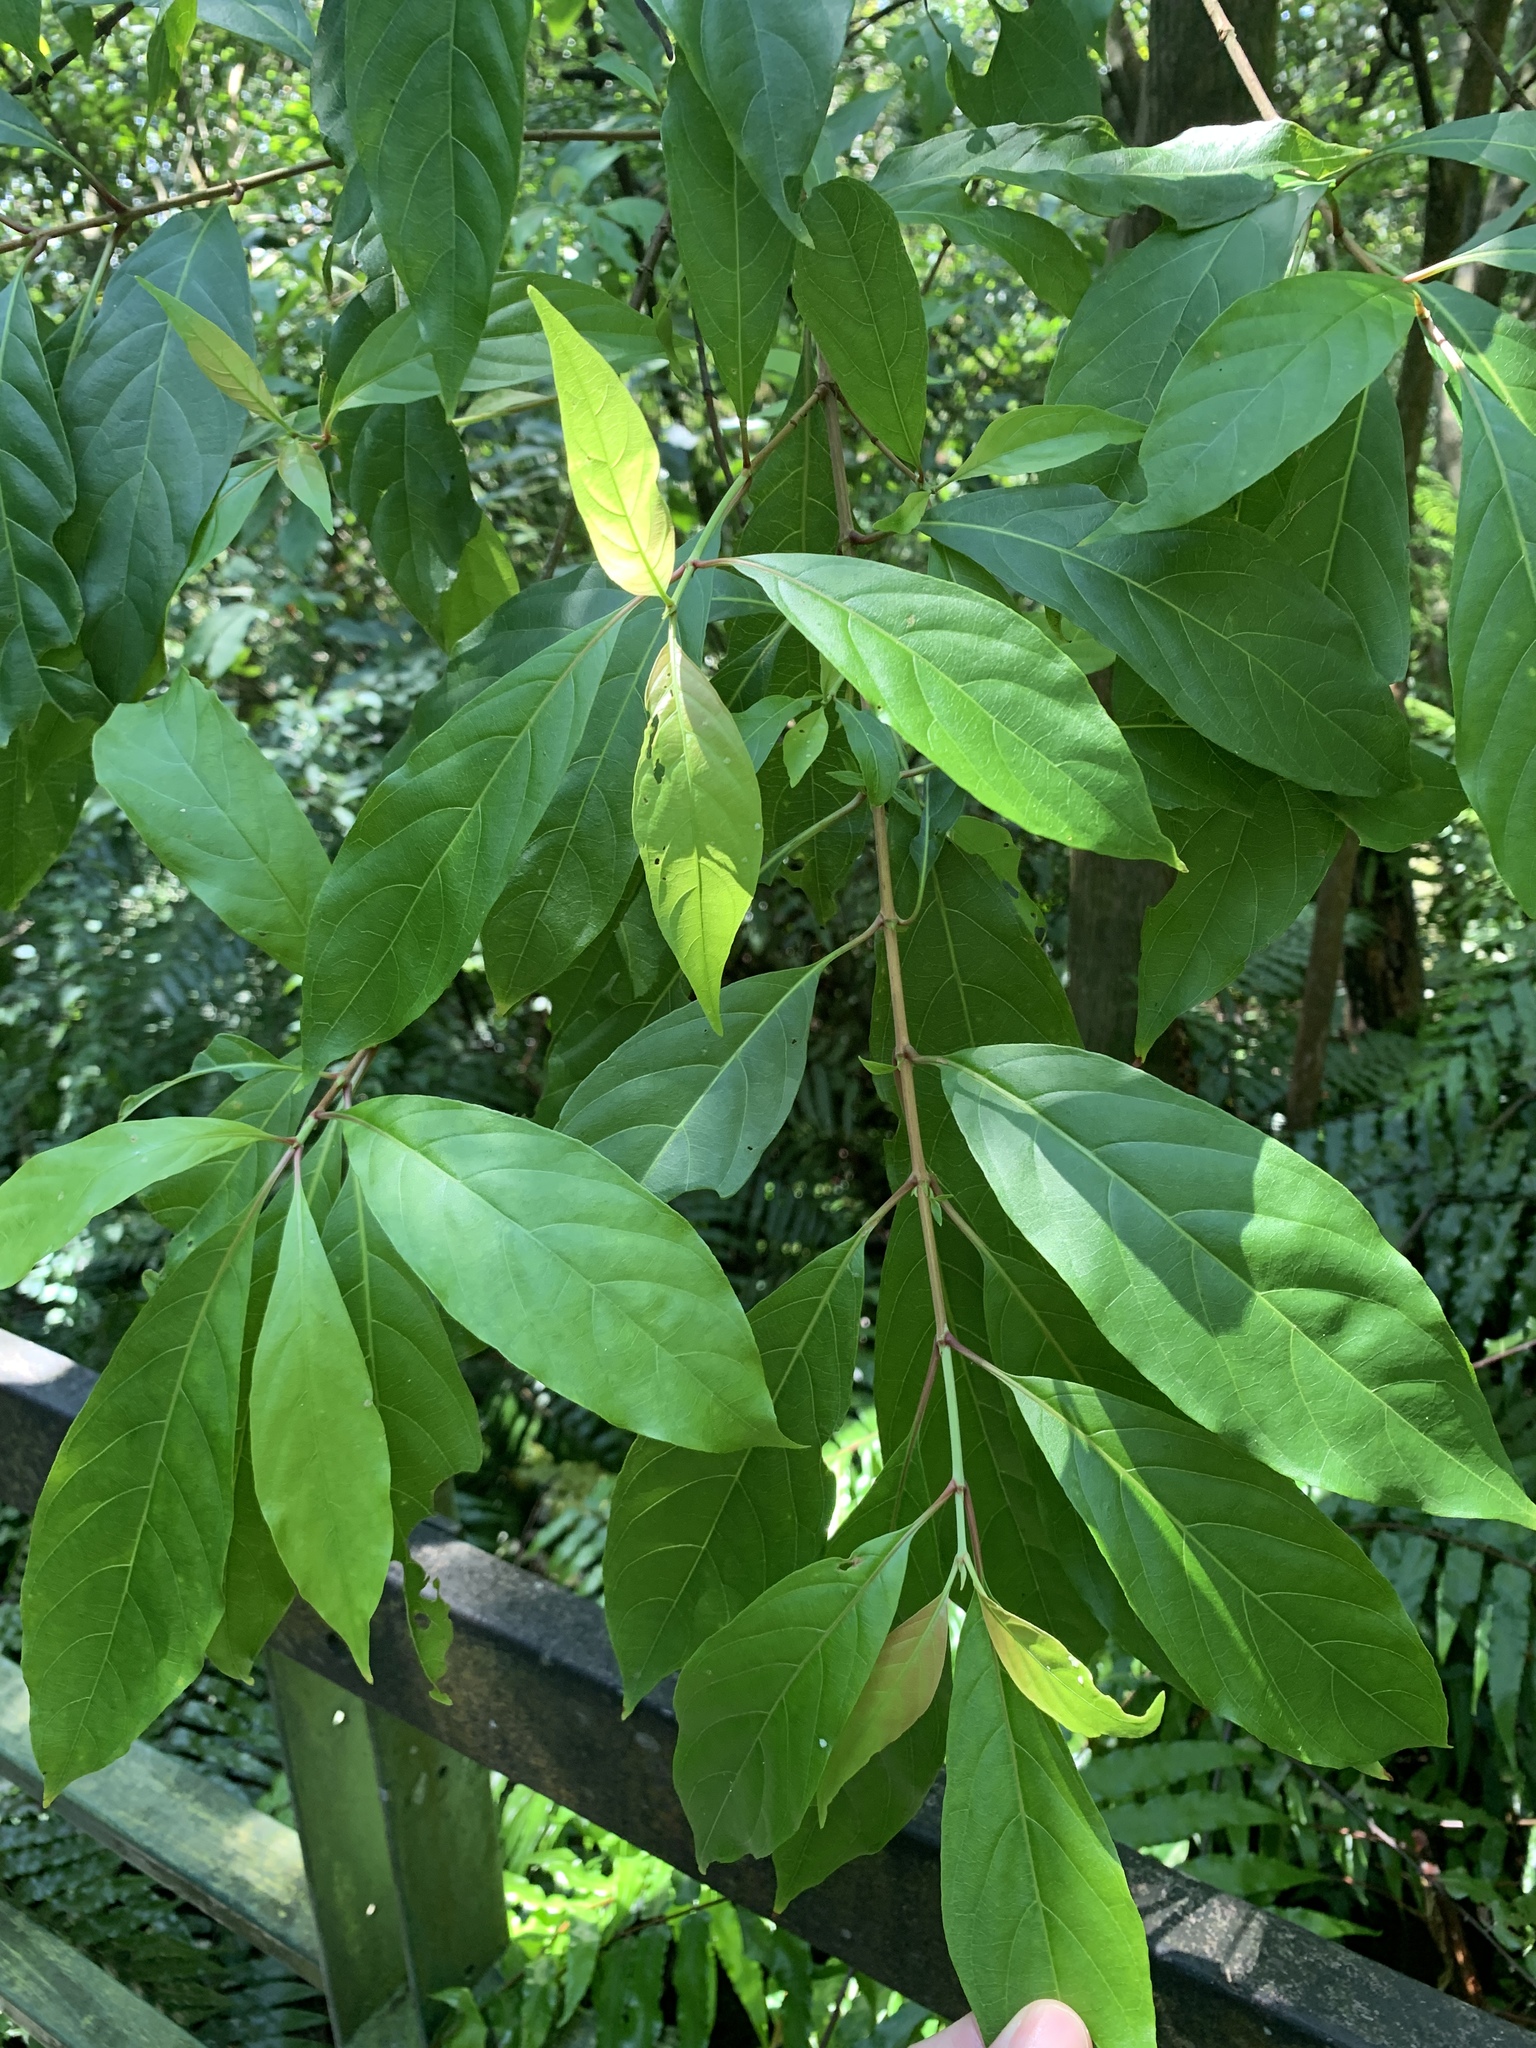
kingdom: Plantae
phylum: Tracheophyta
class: Magnoliopsida
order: Gentianales
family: Rubiaceae
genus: Wendlandia
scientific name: Wendlandia formosana
